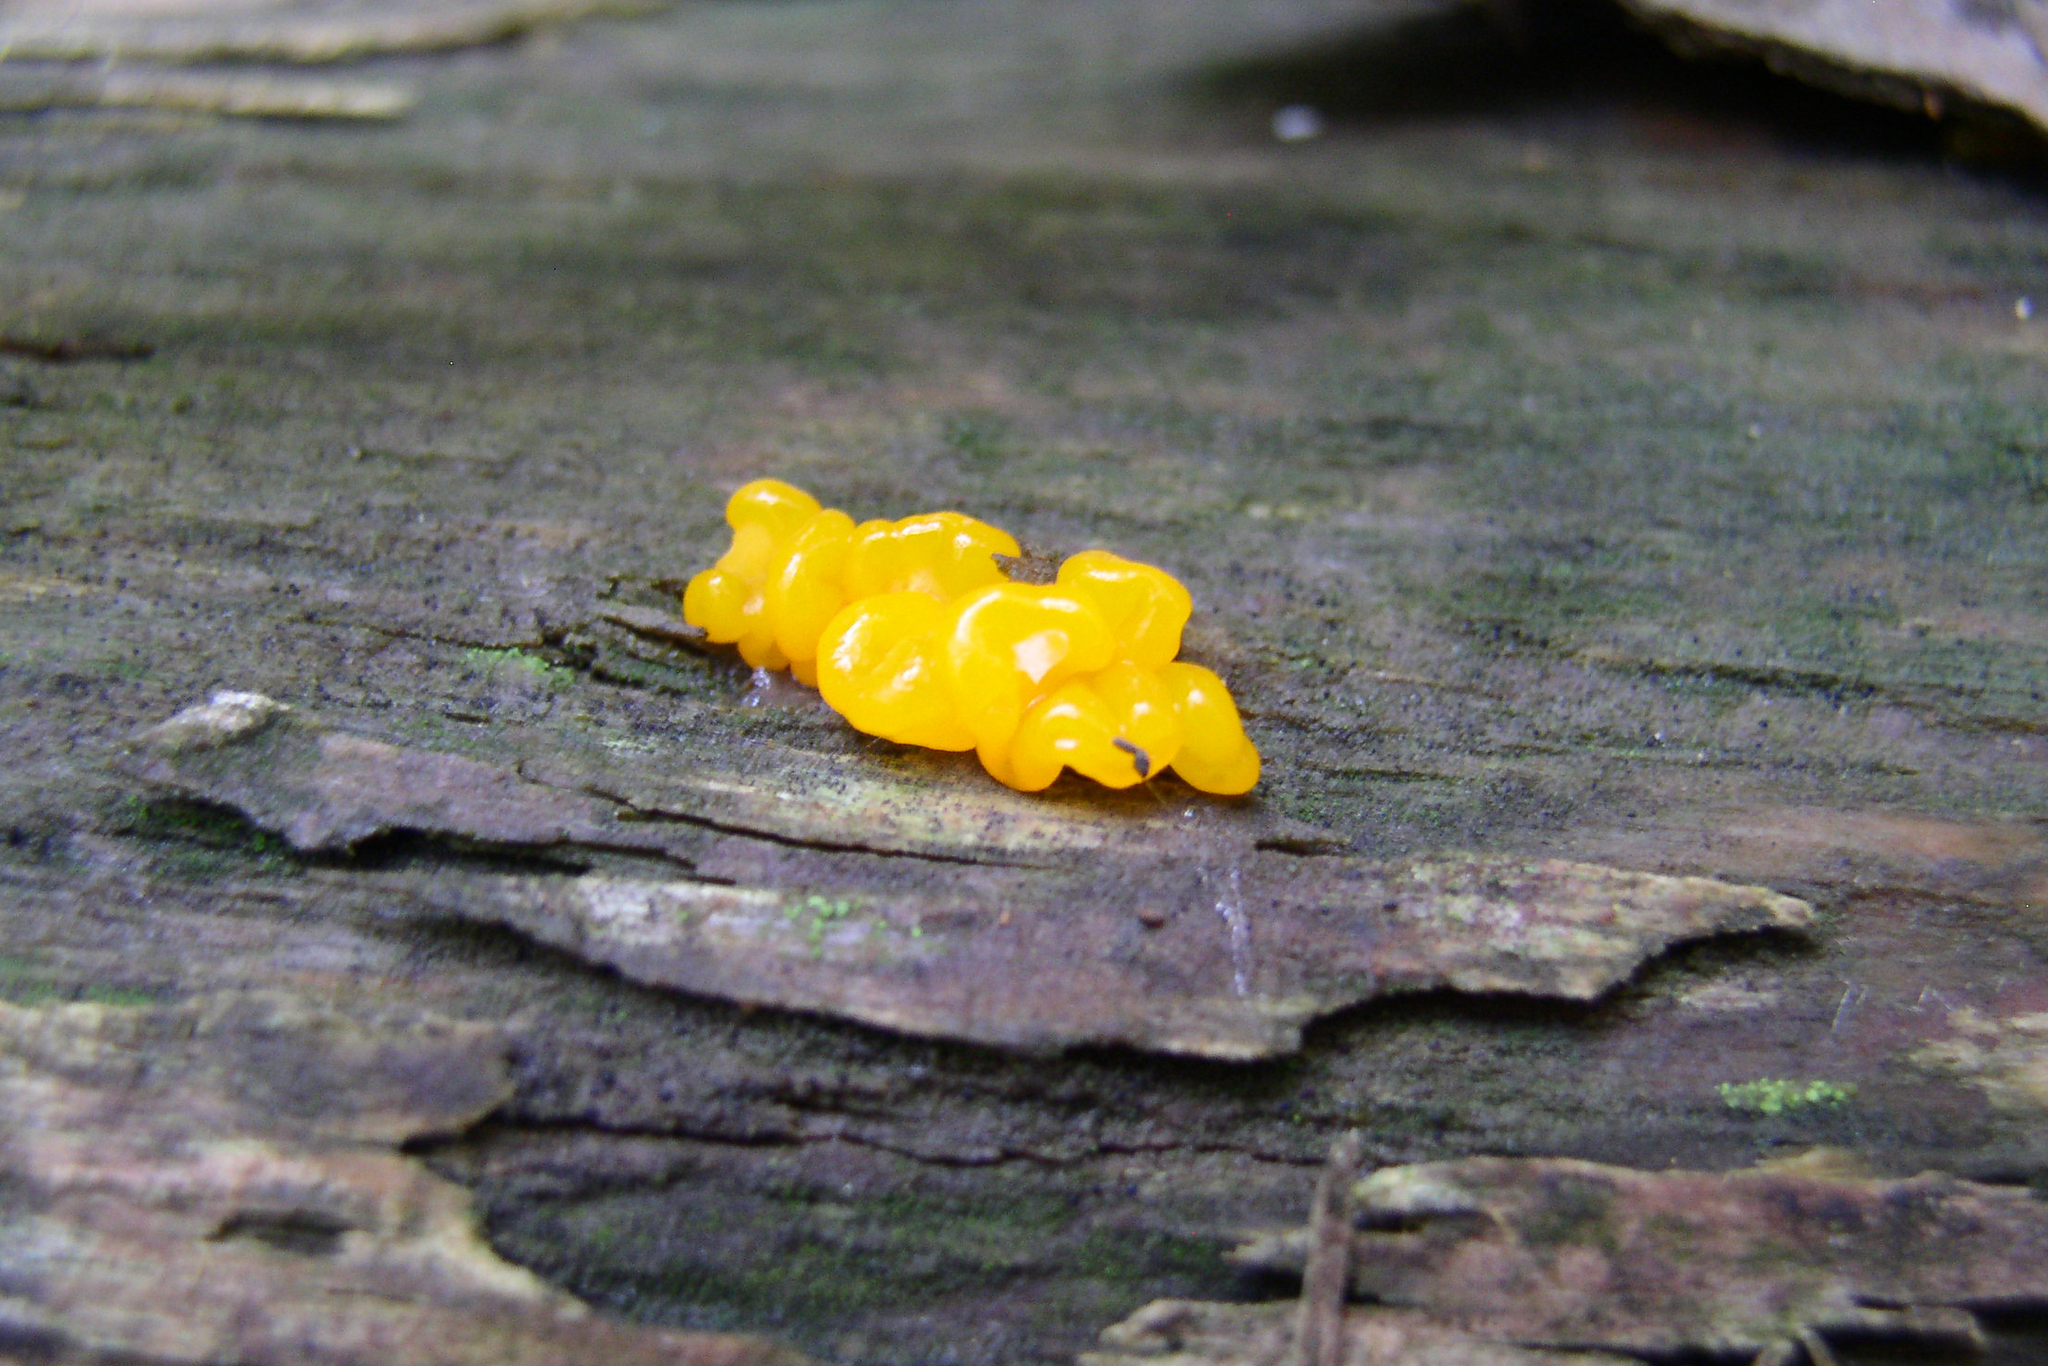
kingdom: Fungi
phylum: Basidiomycota
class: Tremellomycetes
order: Tremellales
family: Tremellaceae
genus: Tremella
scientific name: Tremella mesenterica
